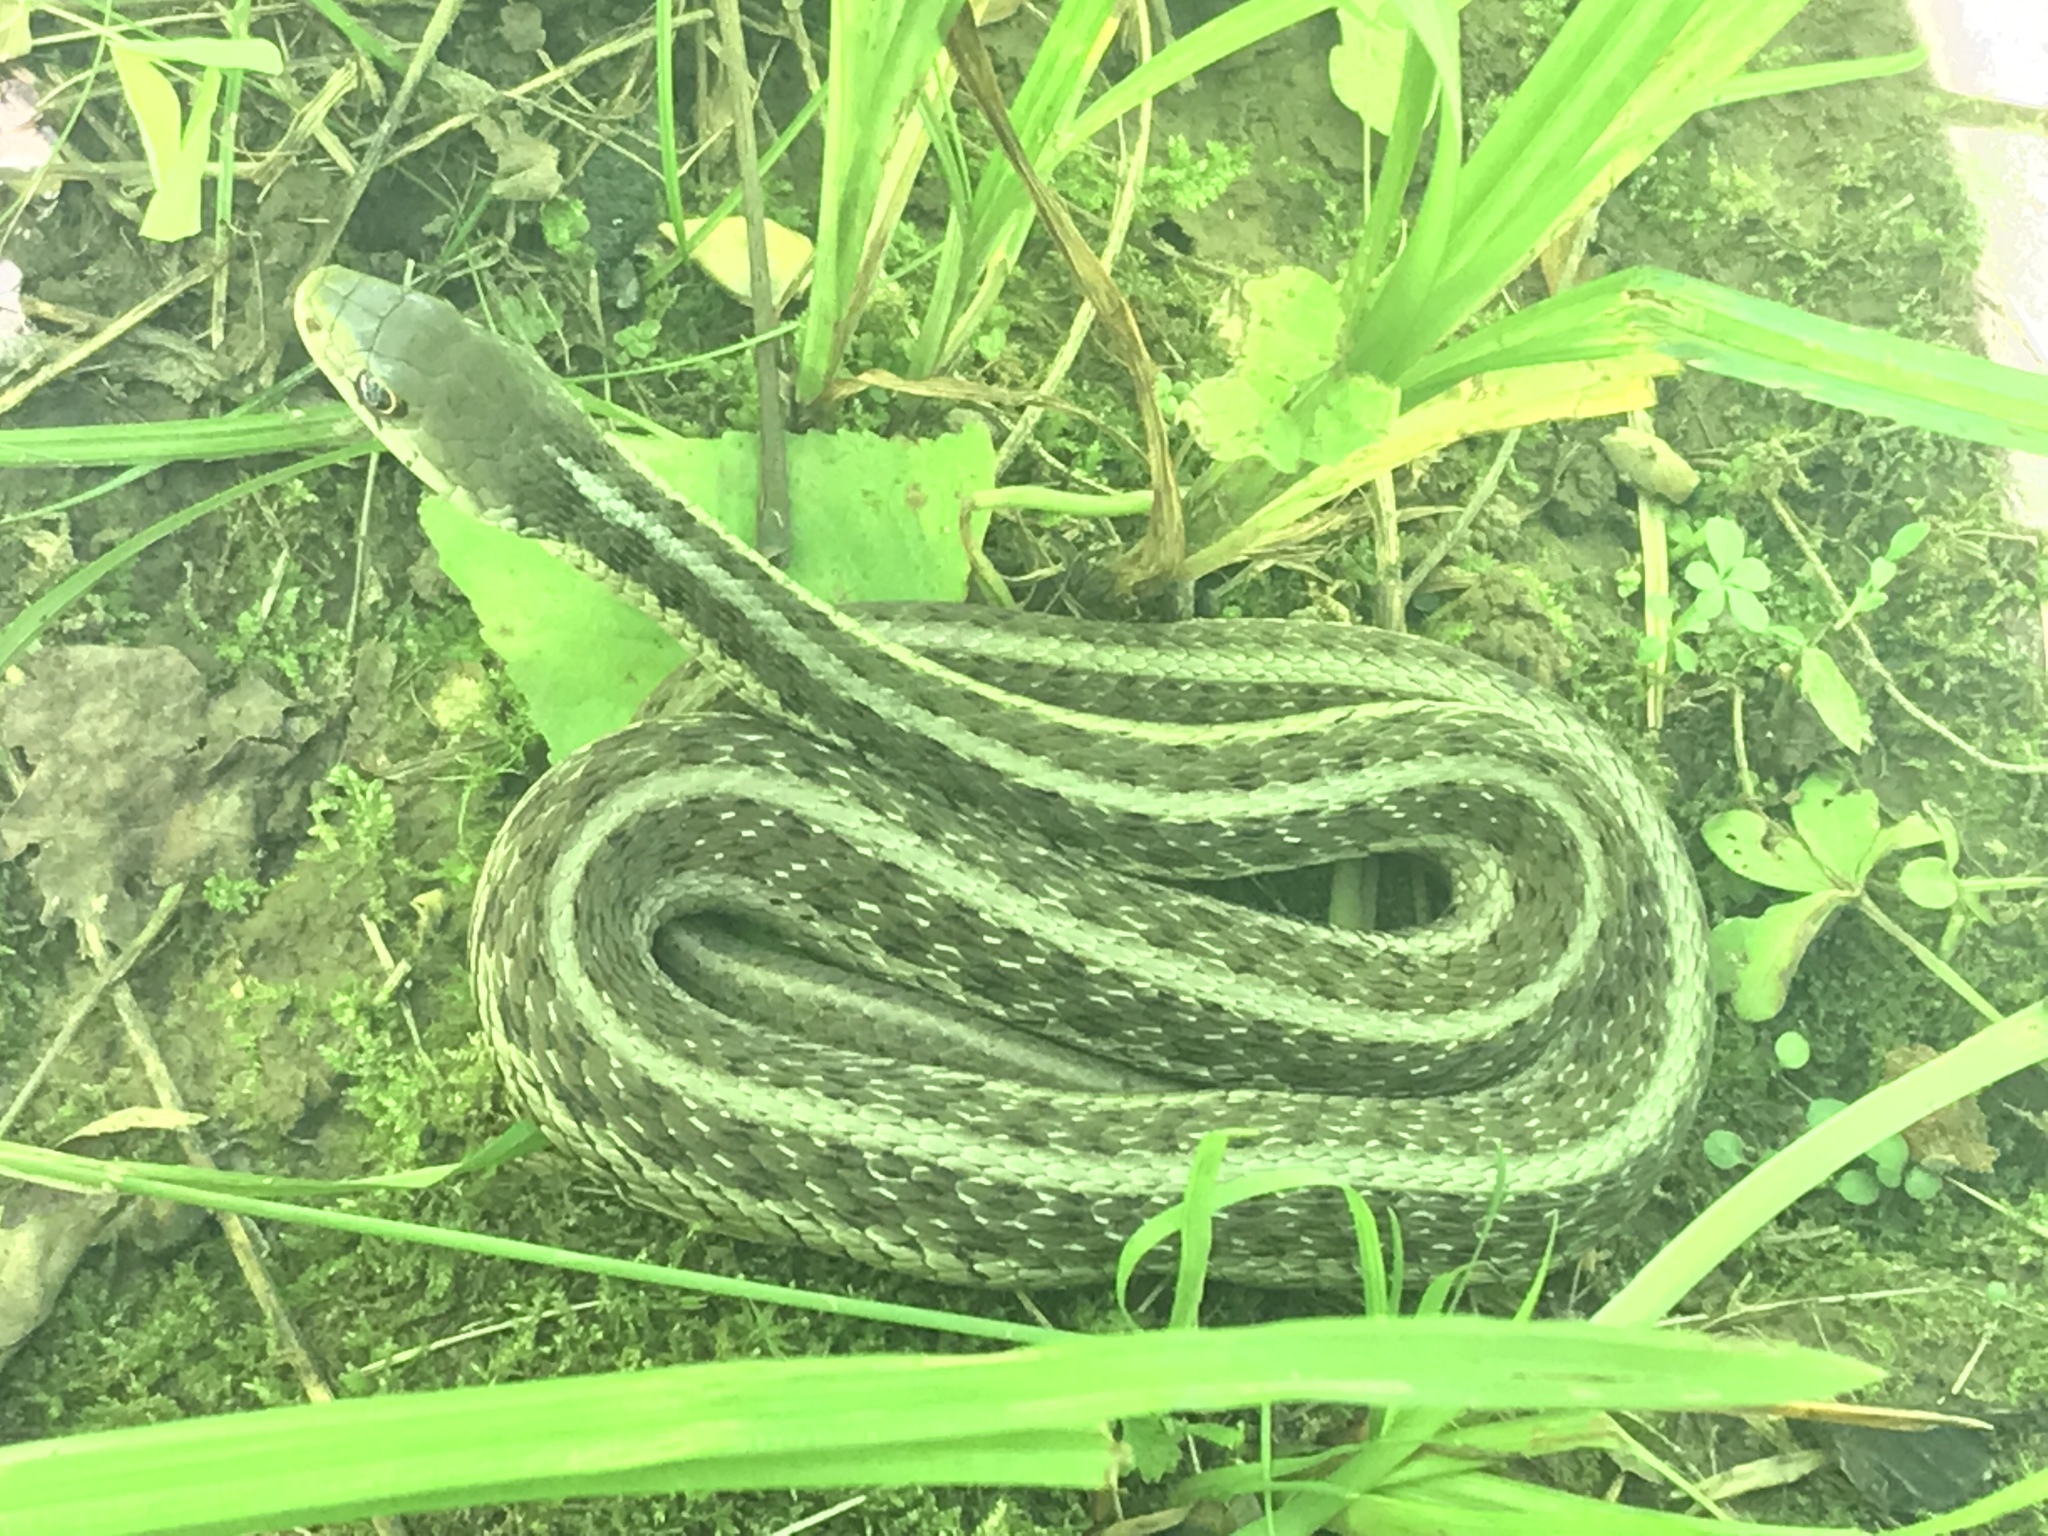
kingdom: Animalia
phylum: Chordata
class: Squamata
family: Colubridae
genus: Thamnophis
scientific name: Thamnophis sirtalis
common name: Common garter snake
